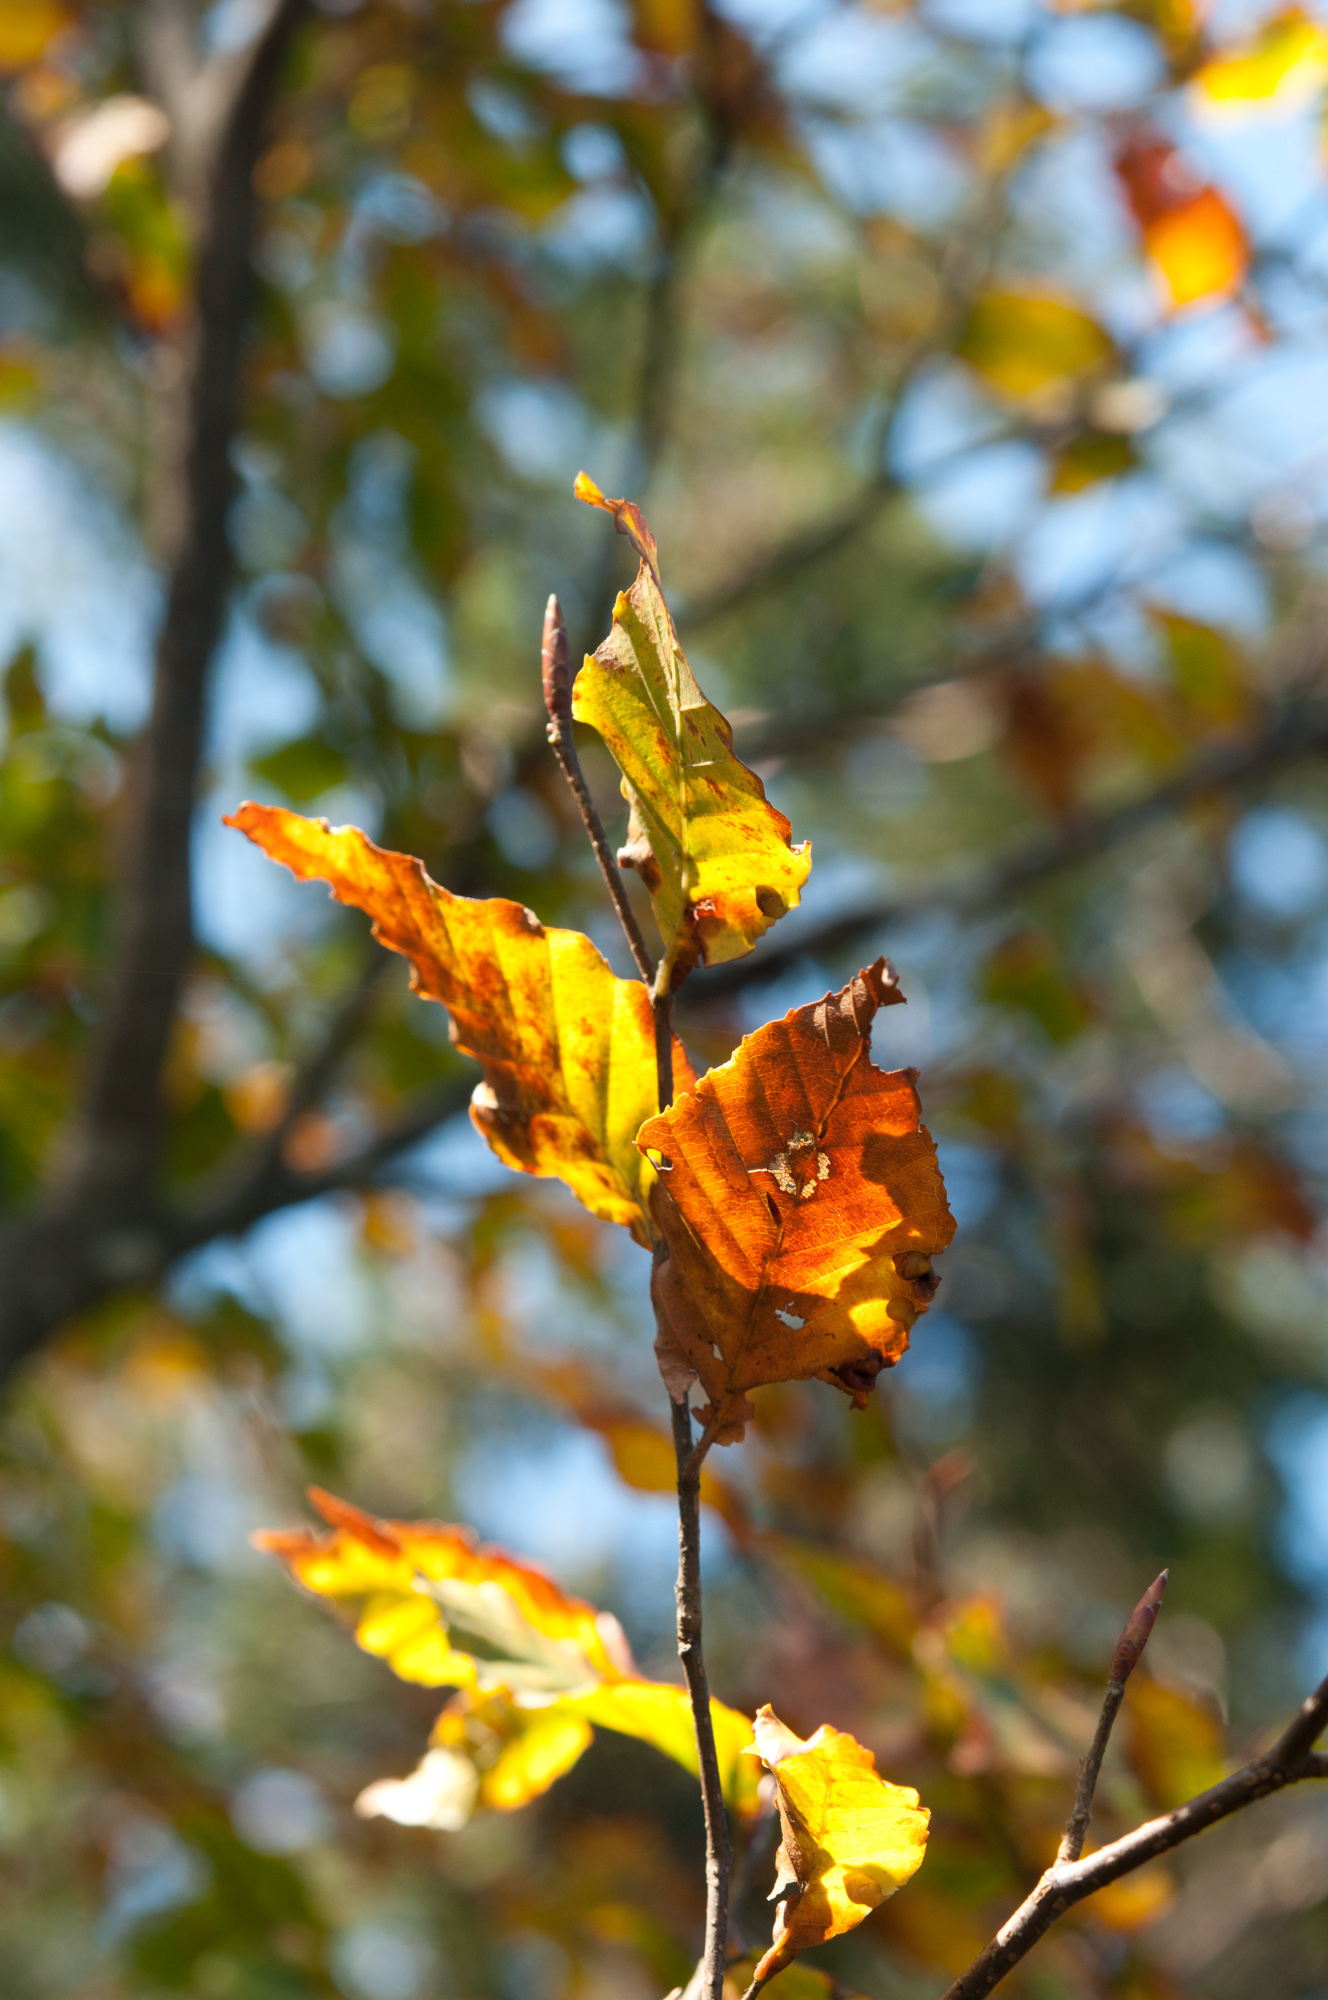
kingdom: Plantae
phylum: Tracheophyta
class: Magnoliopsida
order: Fagales
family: Fagaceae
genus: Fagus
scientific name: Fagus hayatae
